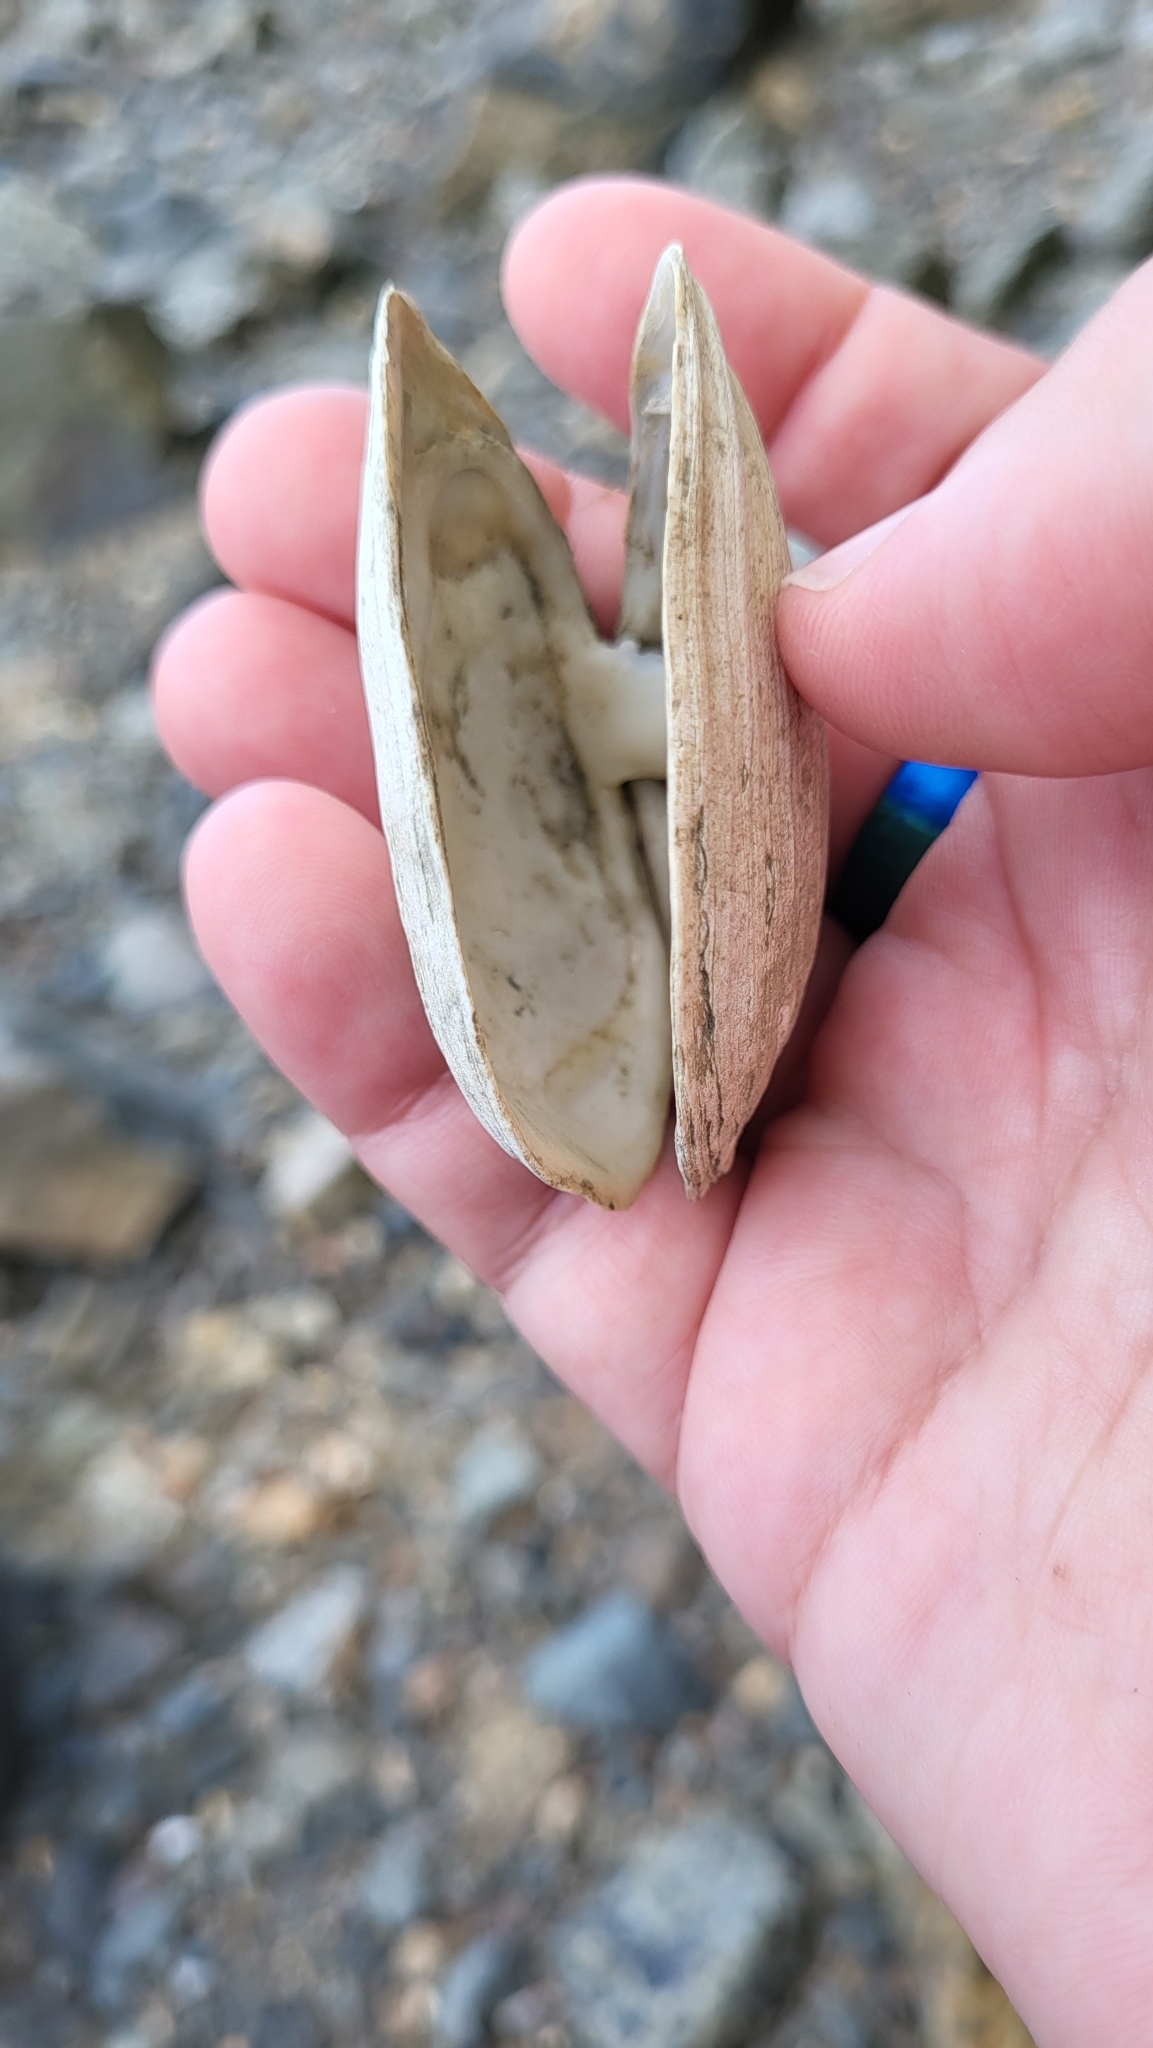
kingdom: Animalia
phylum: Mollusca
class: Bivalvia
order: Myida
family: Myidae
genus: Mya
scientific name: Mya arenaria
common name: Soft-shelled clam
